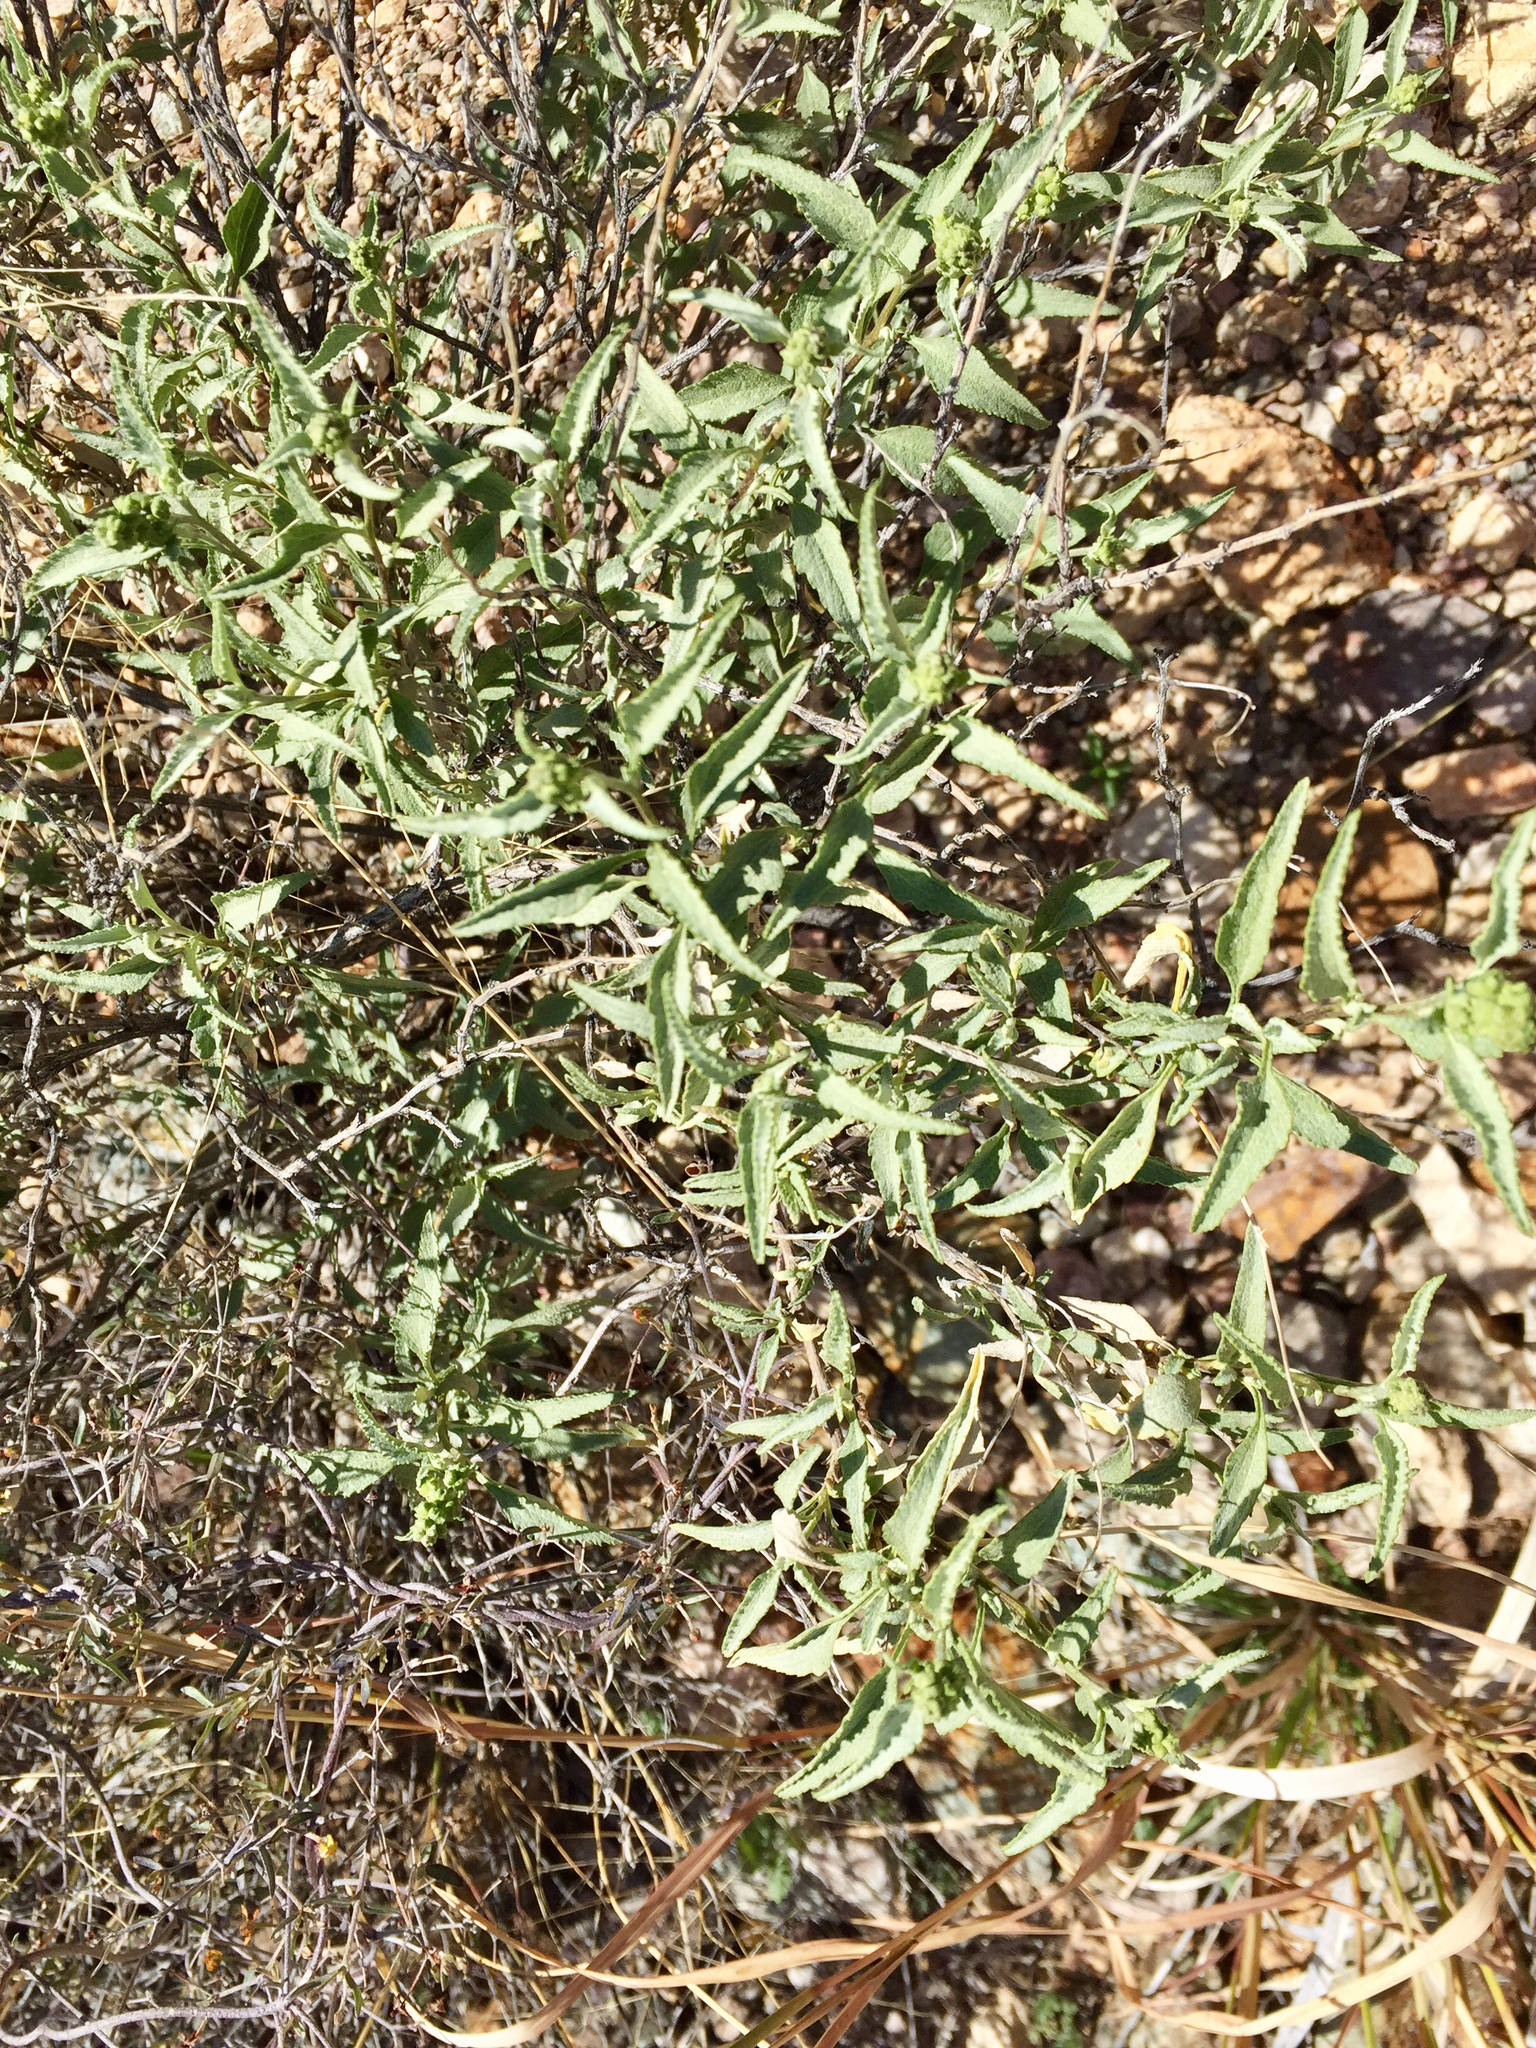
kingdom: Plantae
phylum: Tracheophyta
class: Magnoliopsida
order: Asterales
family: Asteraceae
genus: Ambrosia
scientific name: Ambrosia deltoidea
